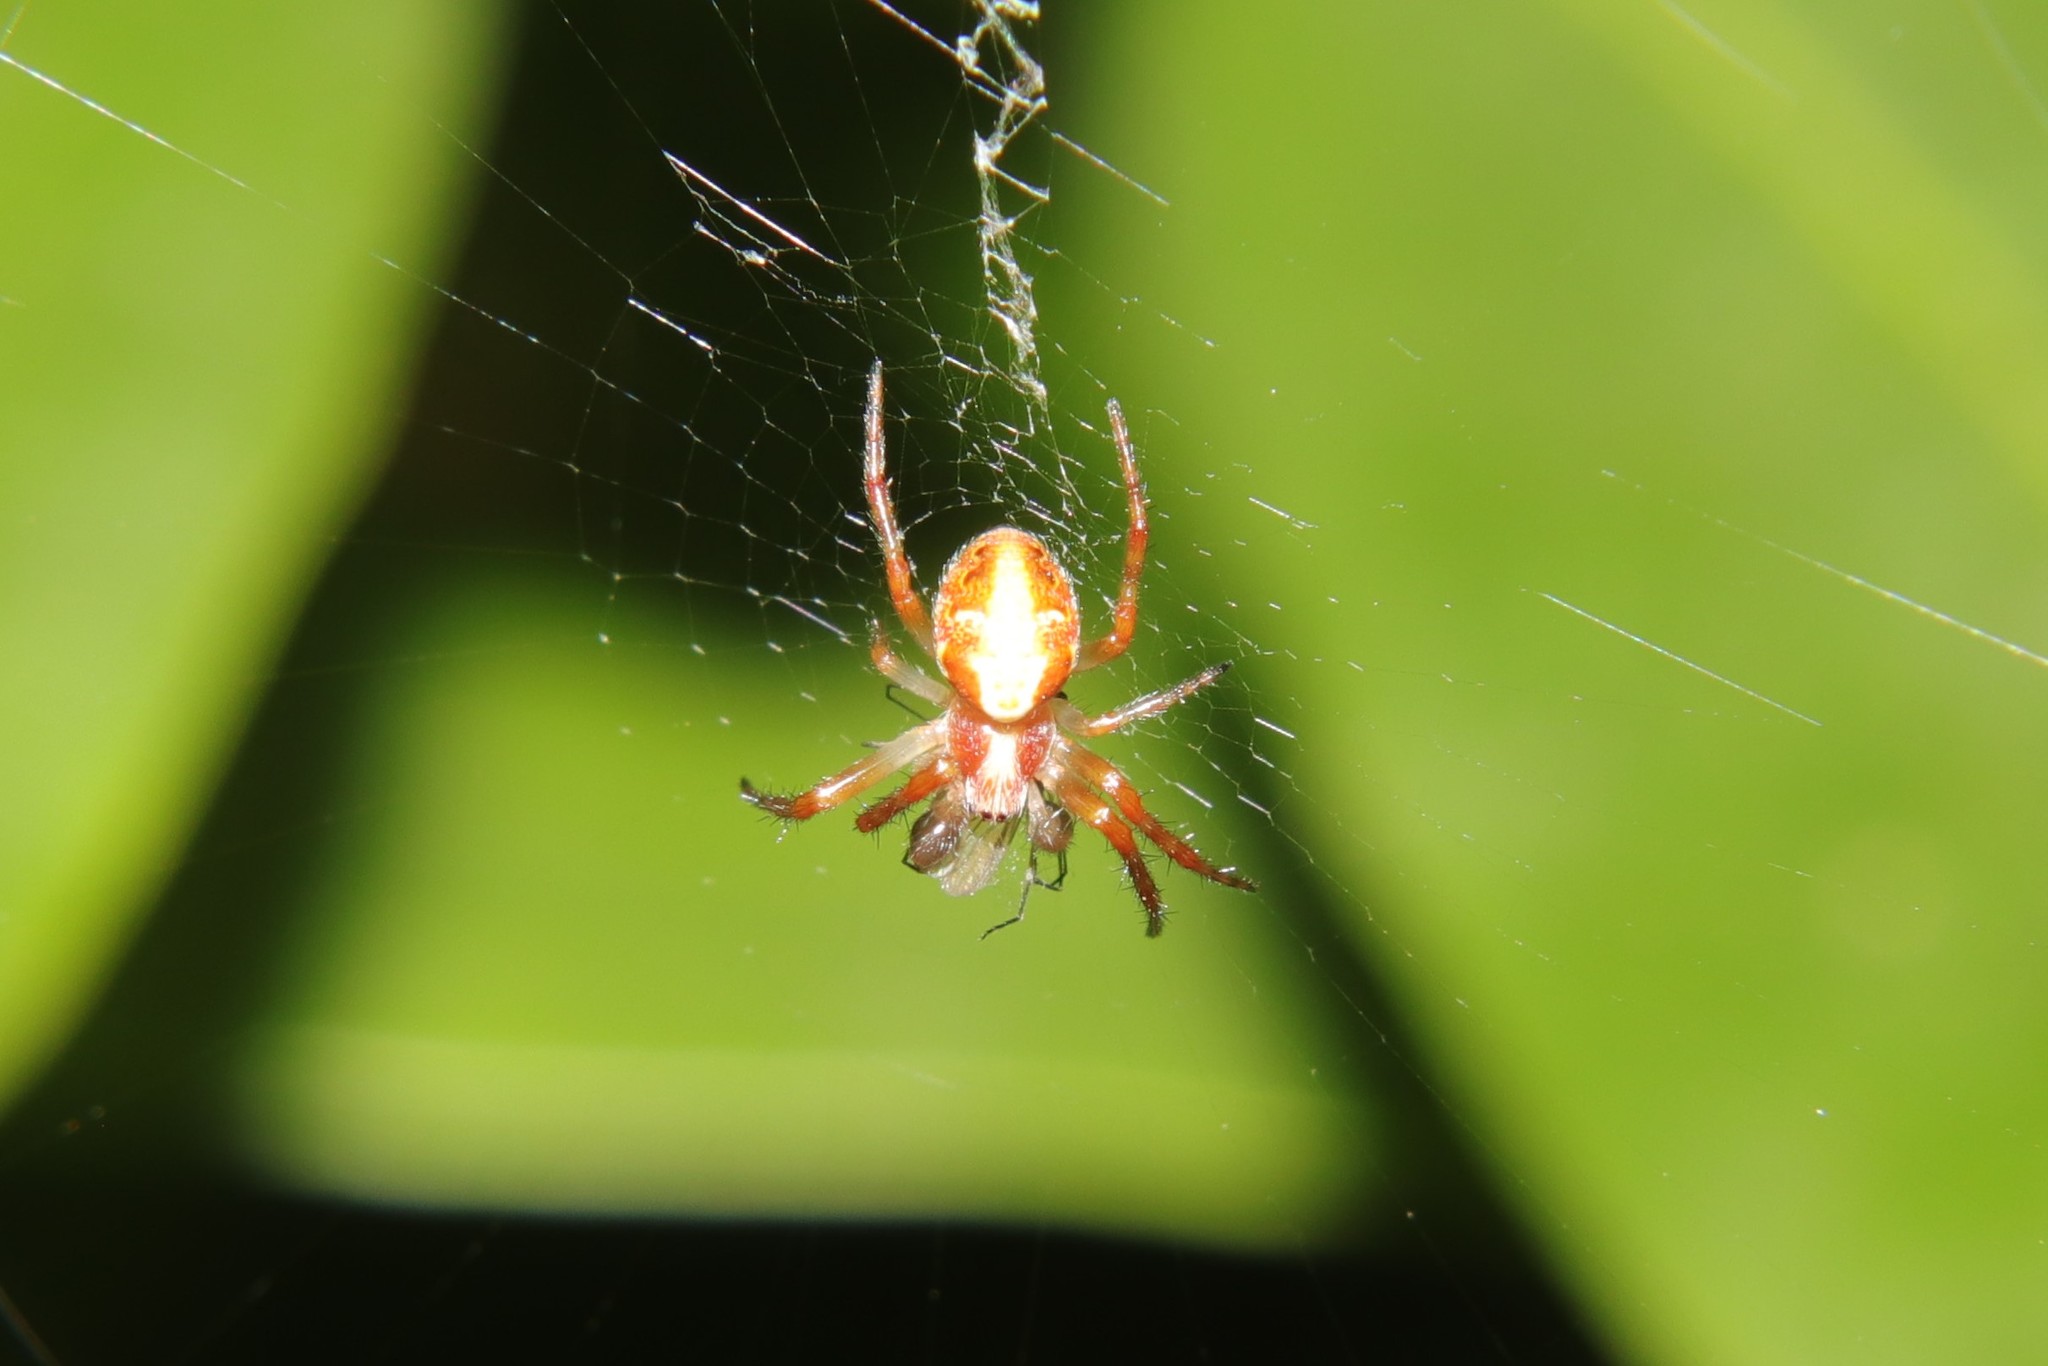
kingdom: Animalia
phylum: Arthropoda
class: Arachnida
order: Araneae
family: Araneidae
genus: Novaranea
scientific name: Novaranea queribunda
